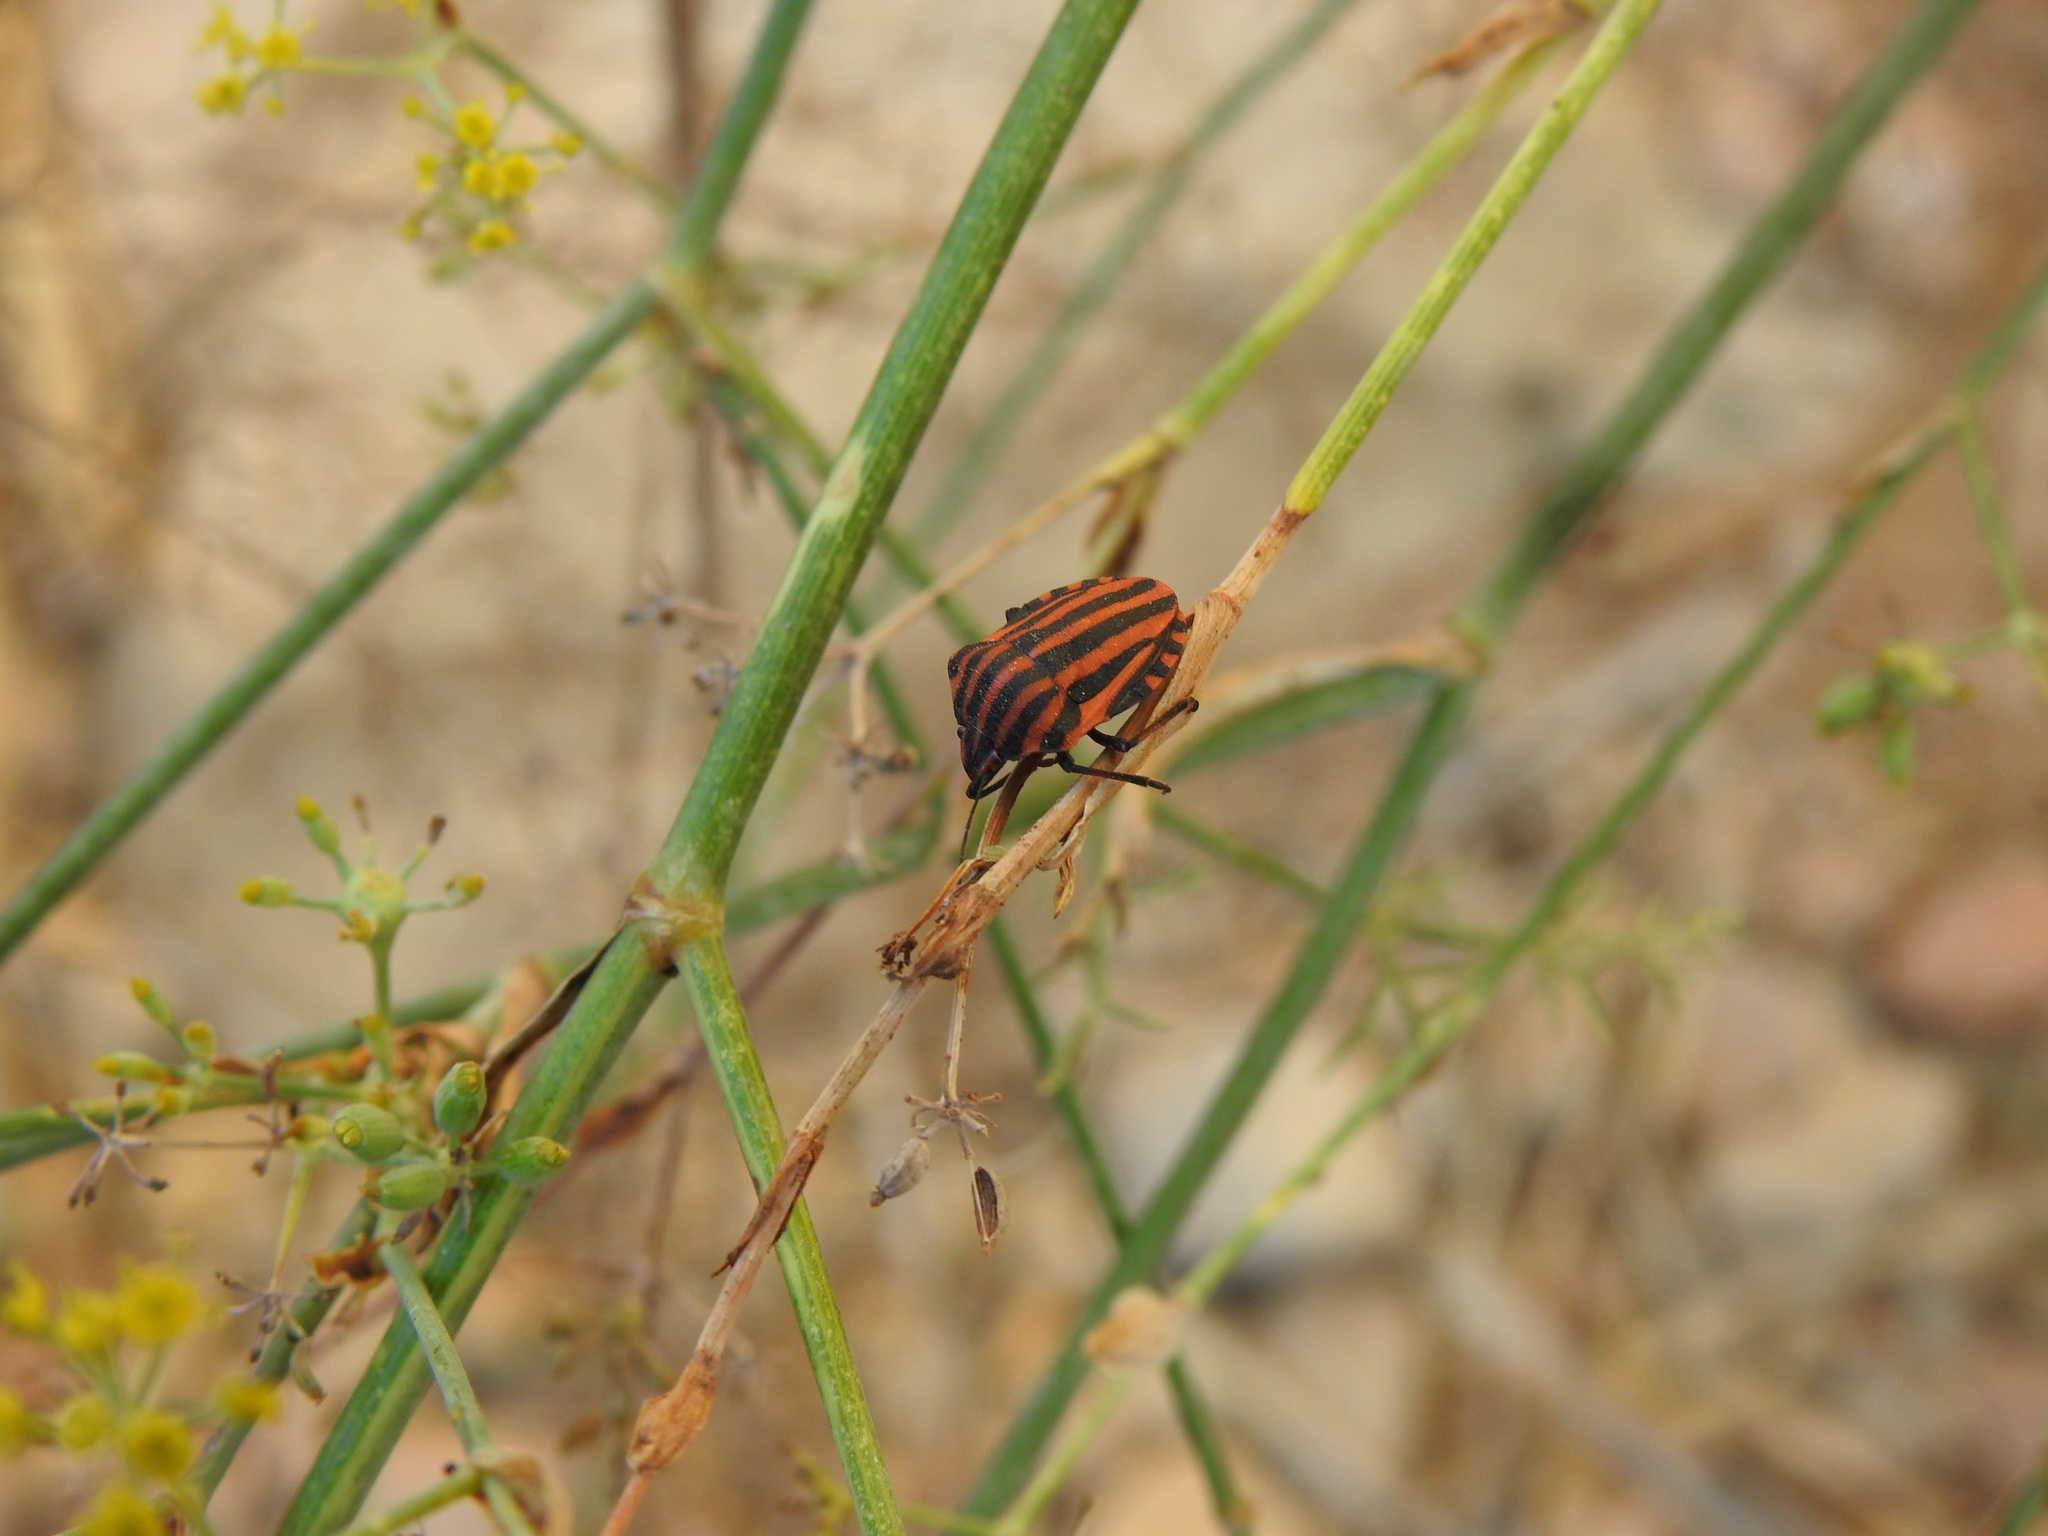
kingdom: Animalia
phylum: Arthropoda
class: Insecta
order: Hemiptera
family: Pentatomidae
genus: Graphosoma
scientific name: Graphosoma italicum
